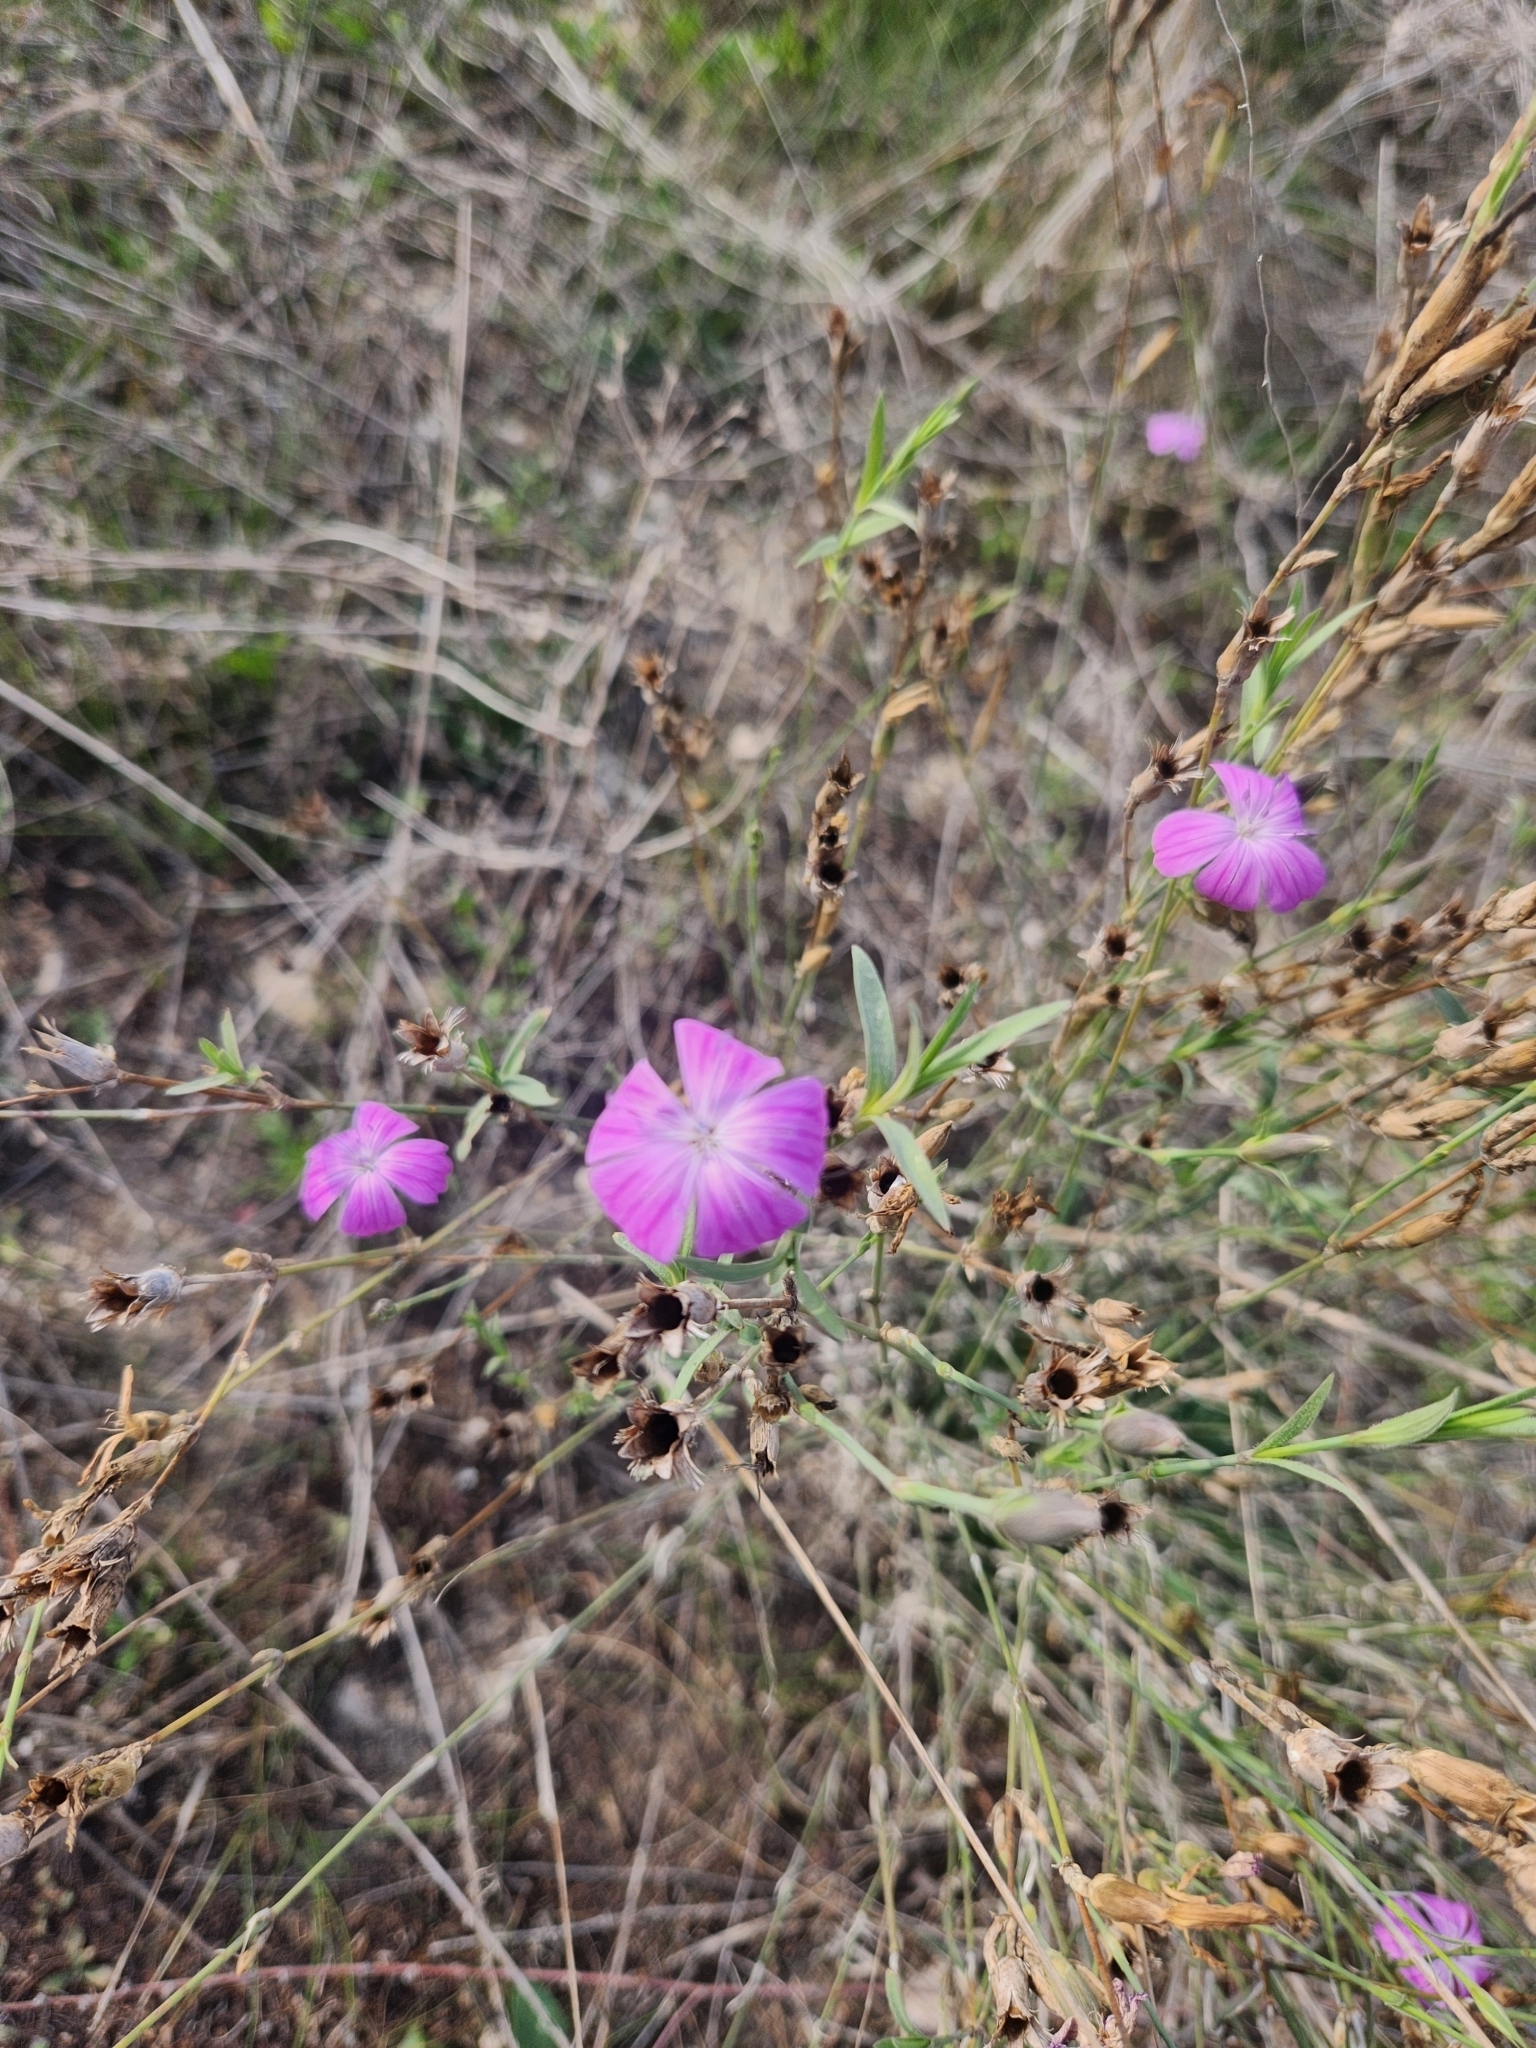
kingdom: Plantae
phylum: Tracheophyta
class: Magnoliopsida
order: Caryophyllales
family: Caryophyllaceae
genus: Dianthus
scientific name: Dianthus strictus
